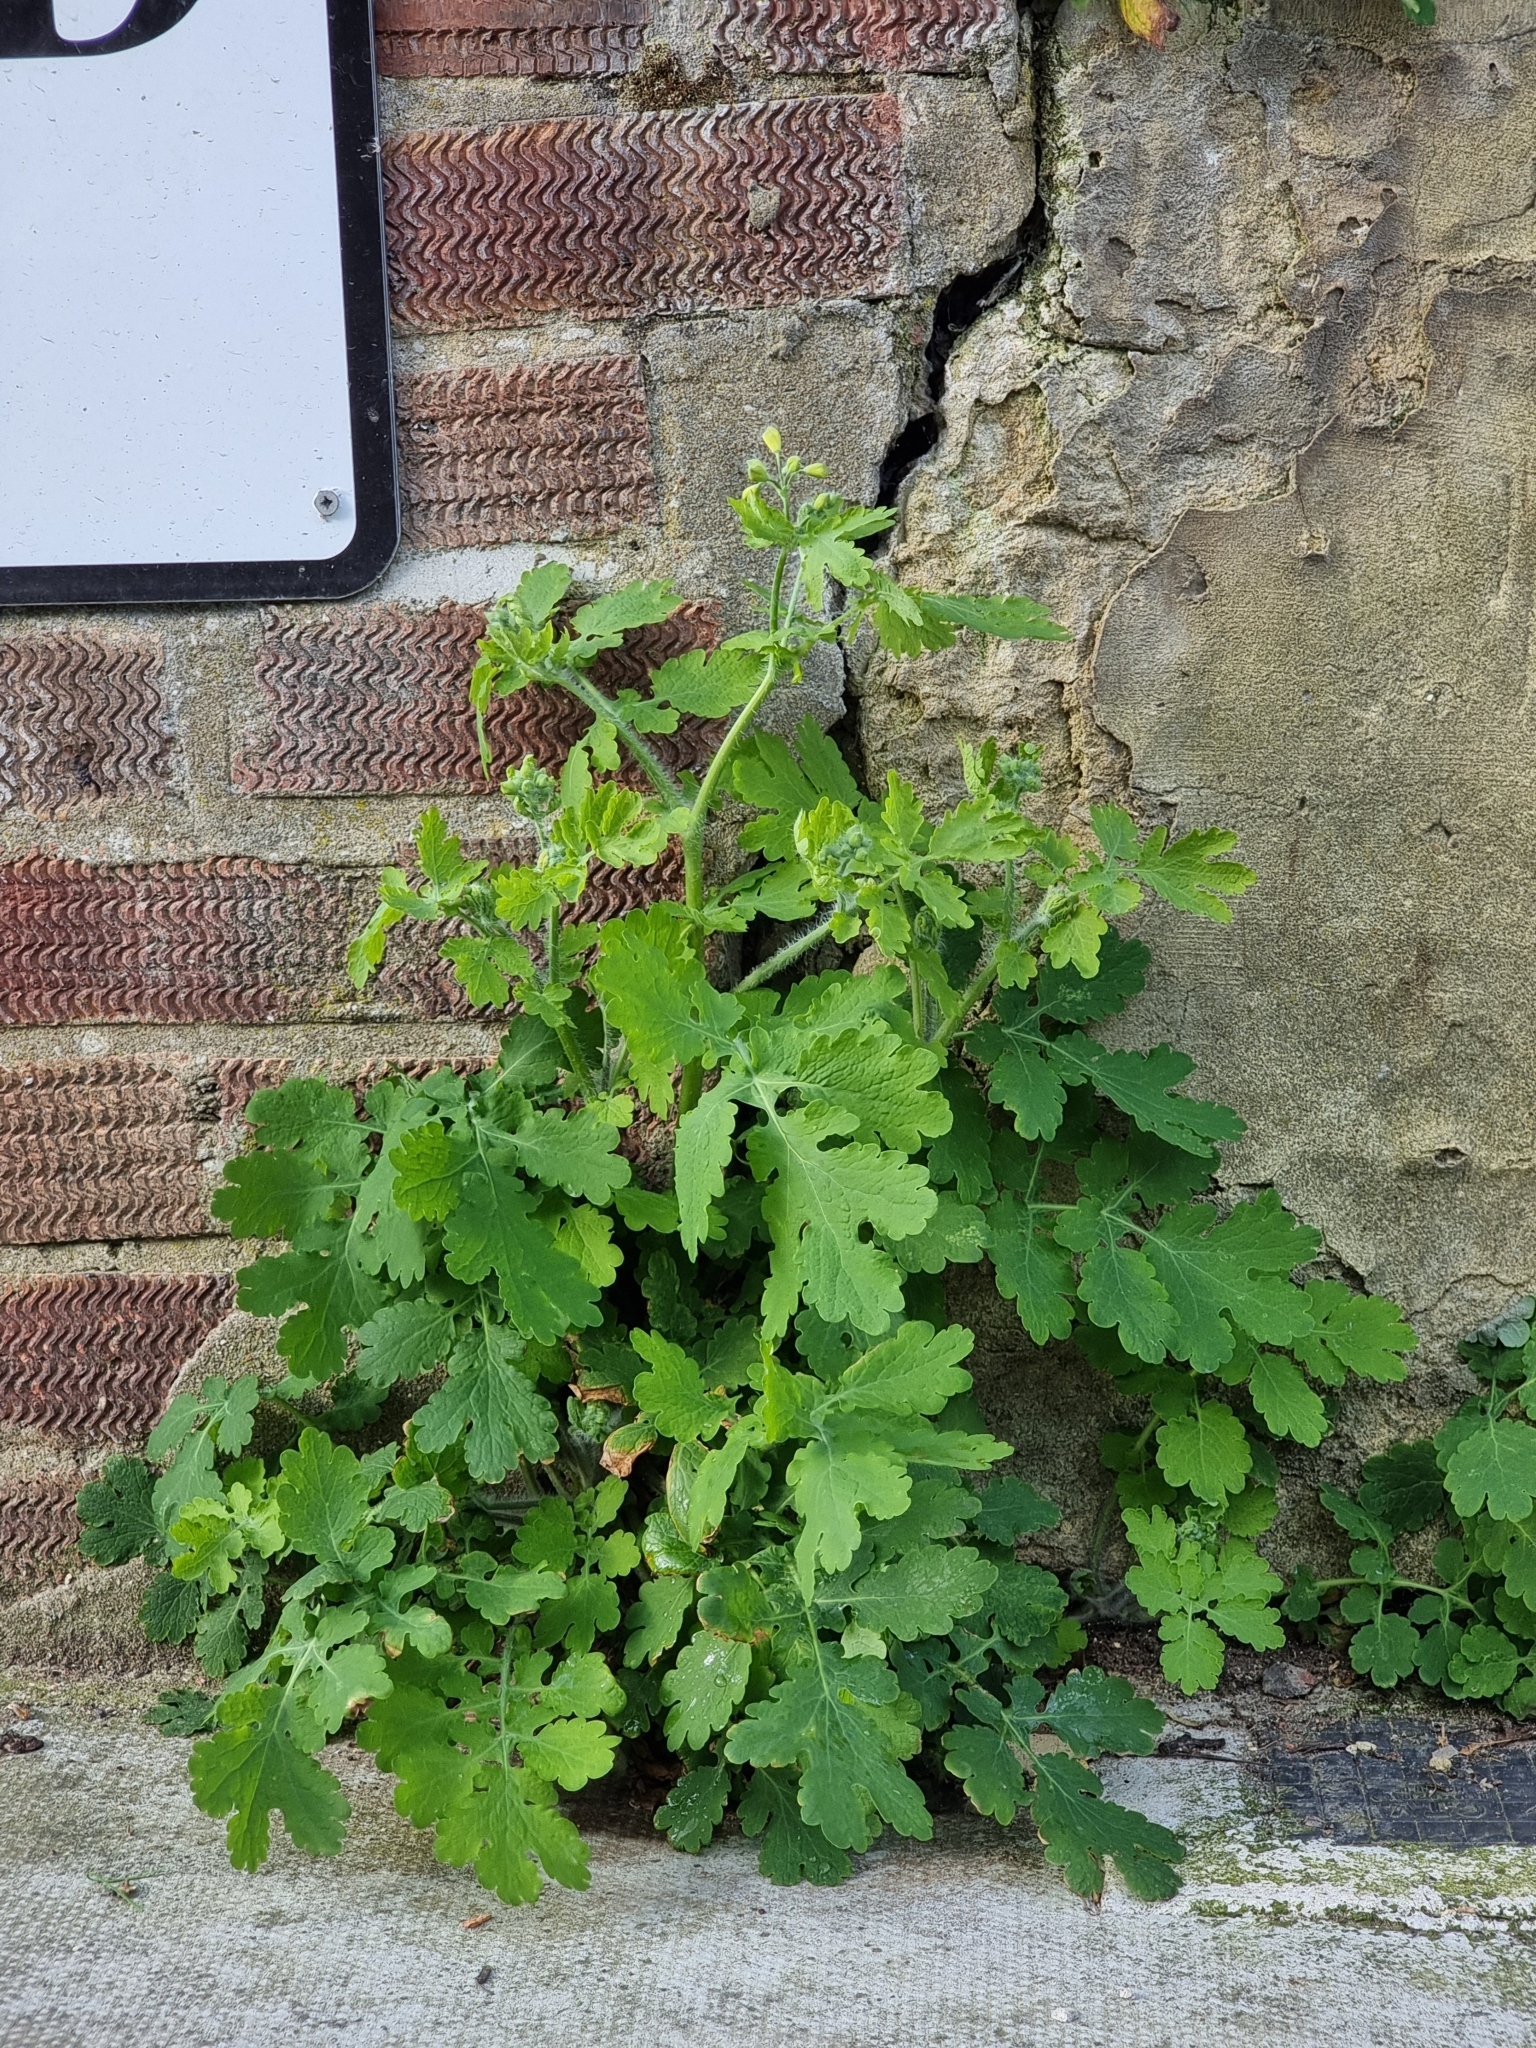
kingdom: Plantae
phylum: Tracheophyta
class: Magnoliopsida
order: Ranunculales
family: Papaveraceae
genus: Chelidonium
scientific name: Chelidonium majus
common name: Greater celandine
